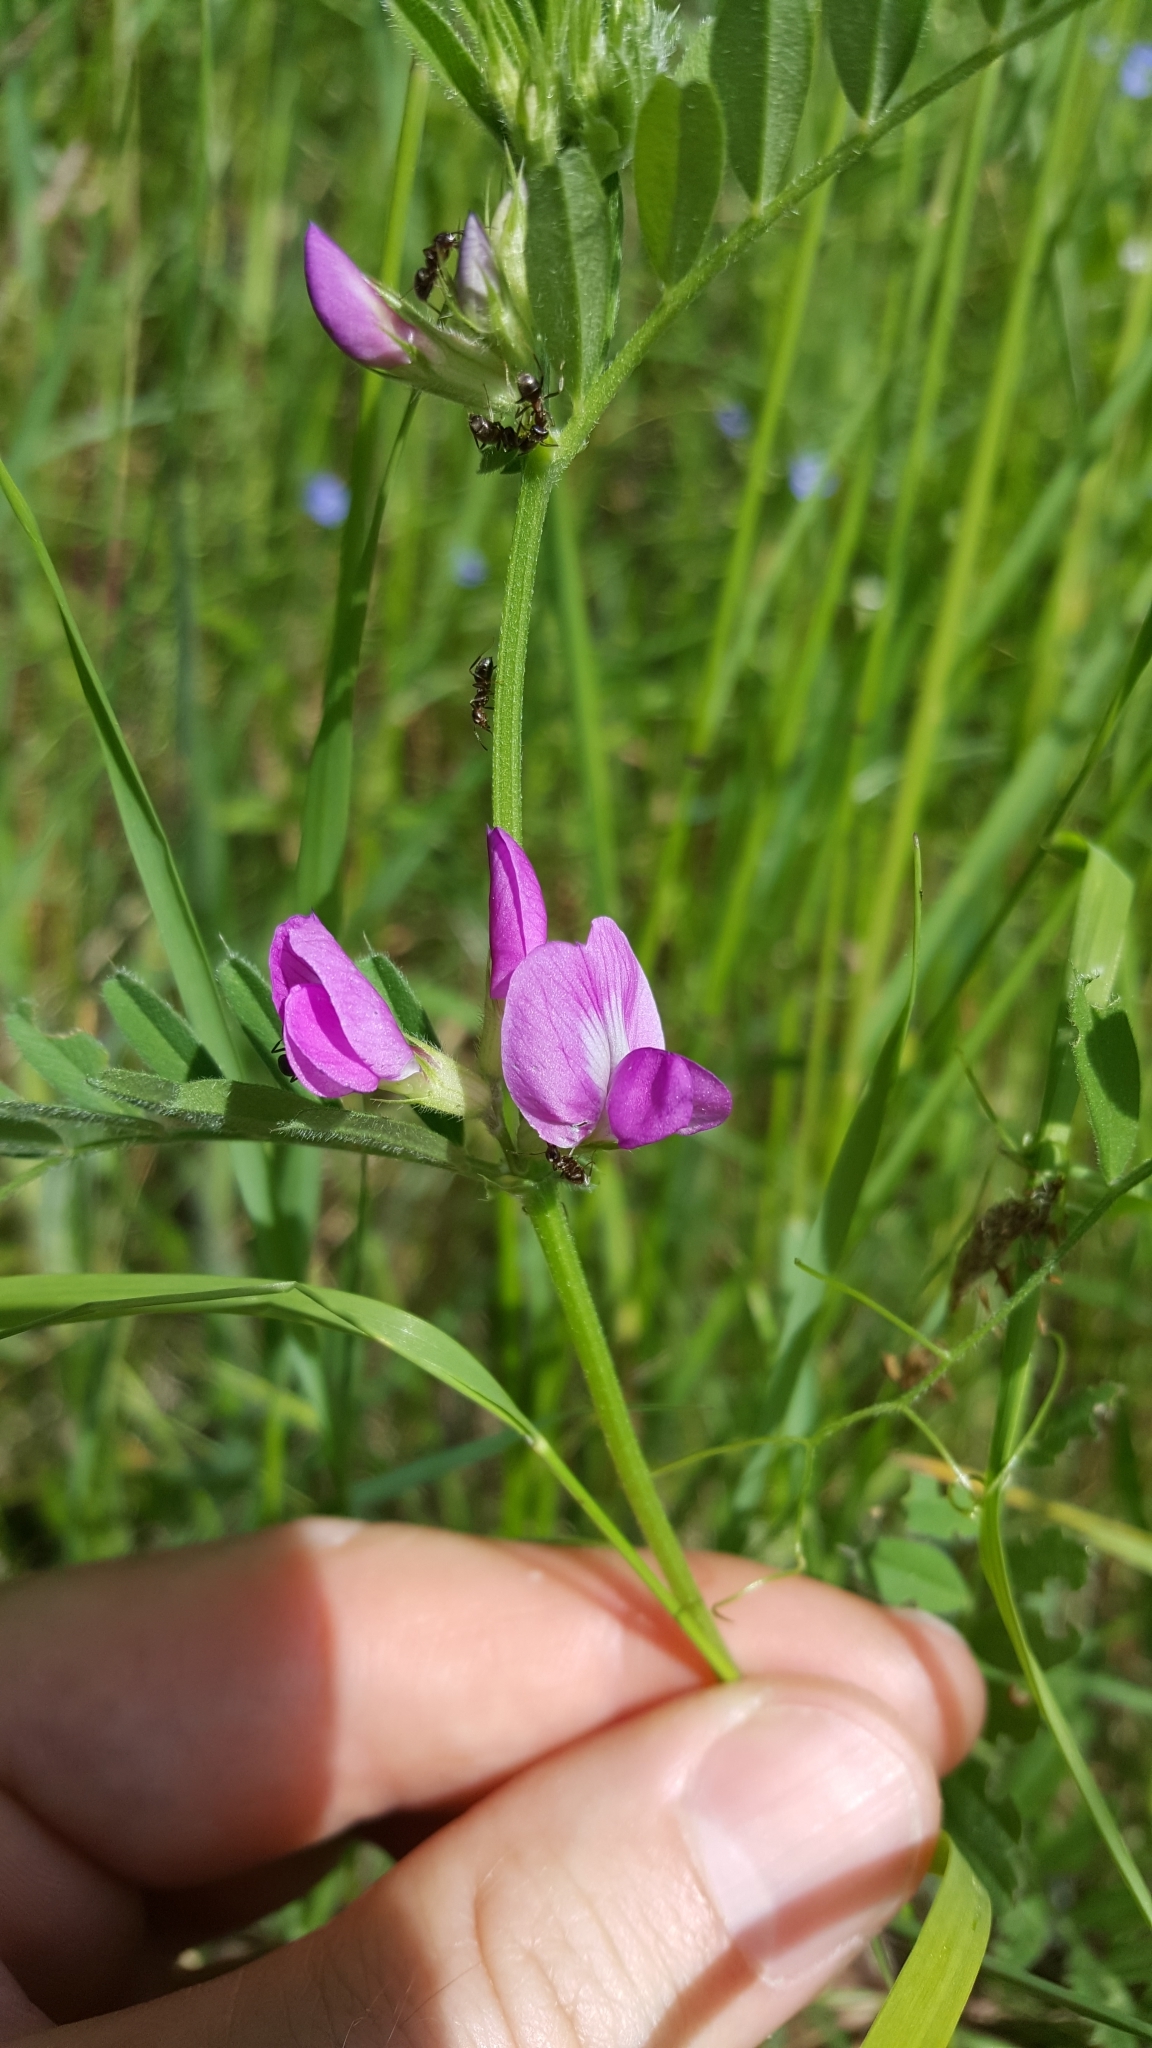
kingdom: Plantae
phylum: Tracheophyta
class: Magnoliopsida
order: Fabales
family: Fabaceae
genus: Vicia
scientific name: Vicia sativa
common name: Garden vetch
